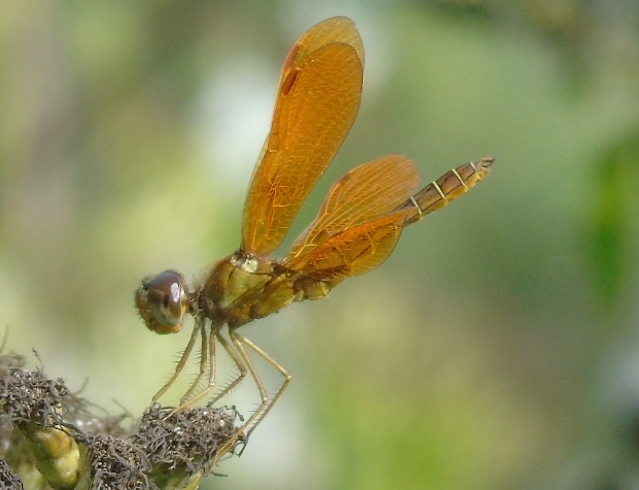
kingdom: Animalia
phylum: Arthropoda
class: Insecta
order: Odonata
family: Libellulidae
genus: Perithemis
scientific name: Perithemis intensa
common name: Mexican amberwing
